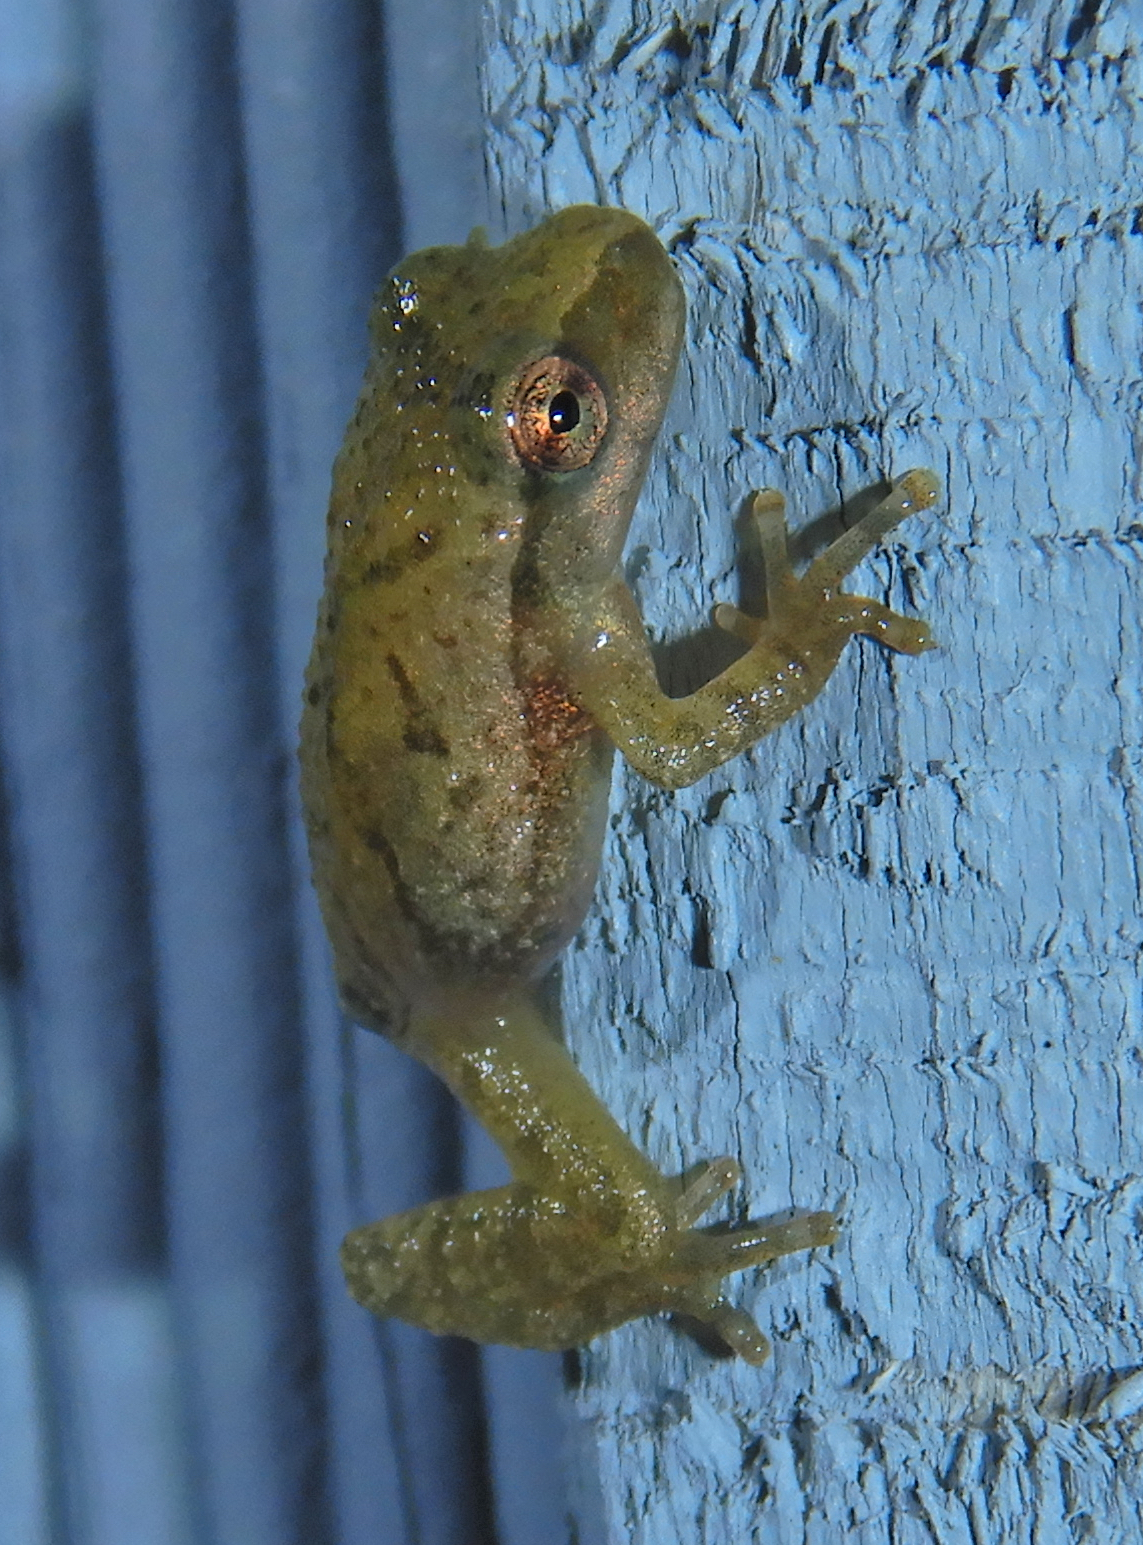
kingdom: Animalia
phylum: Chordata
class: Amphibia
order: Anura
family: Hylidae
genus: Pseudacris
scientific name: Pseudacris crucifer
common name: Spring peeper
